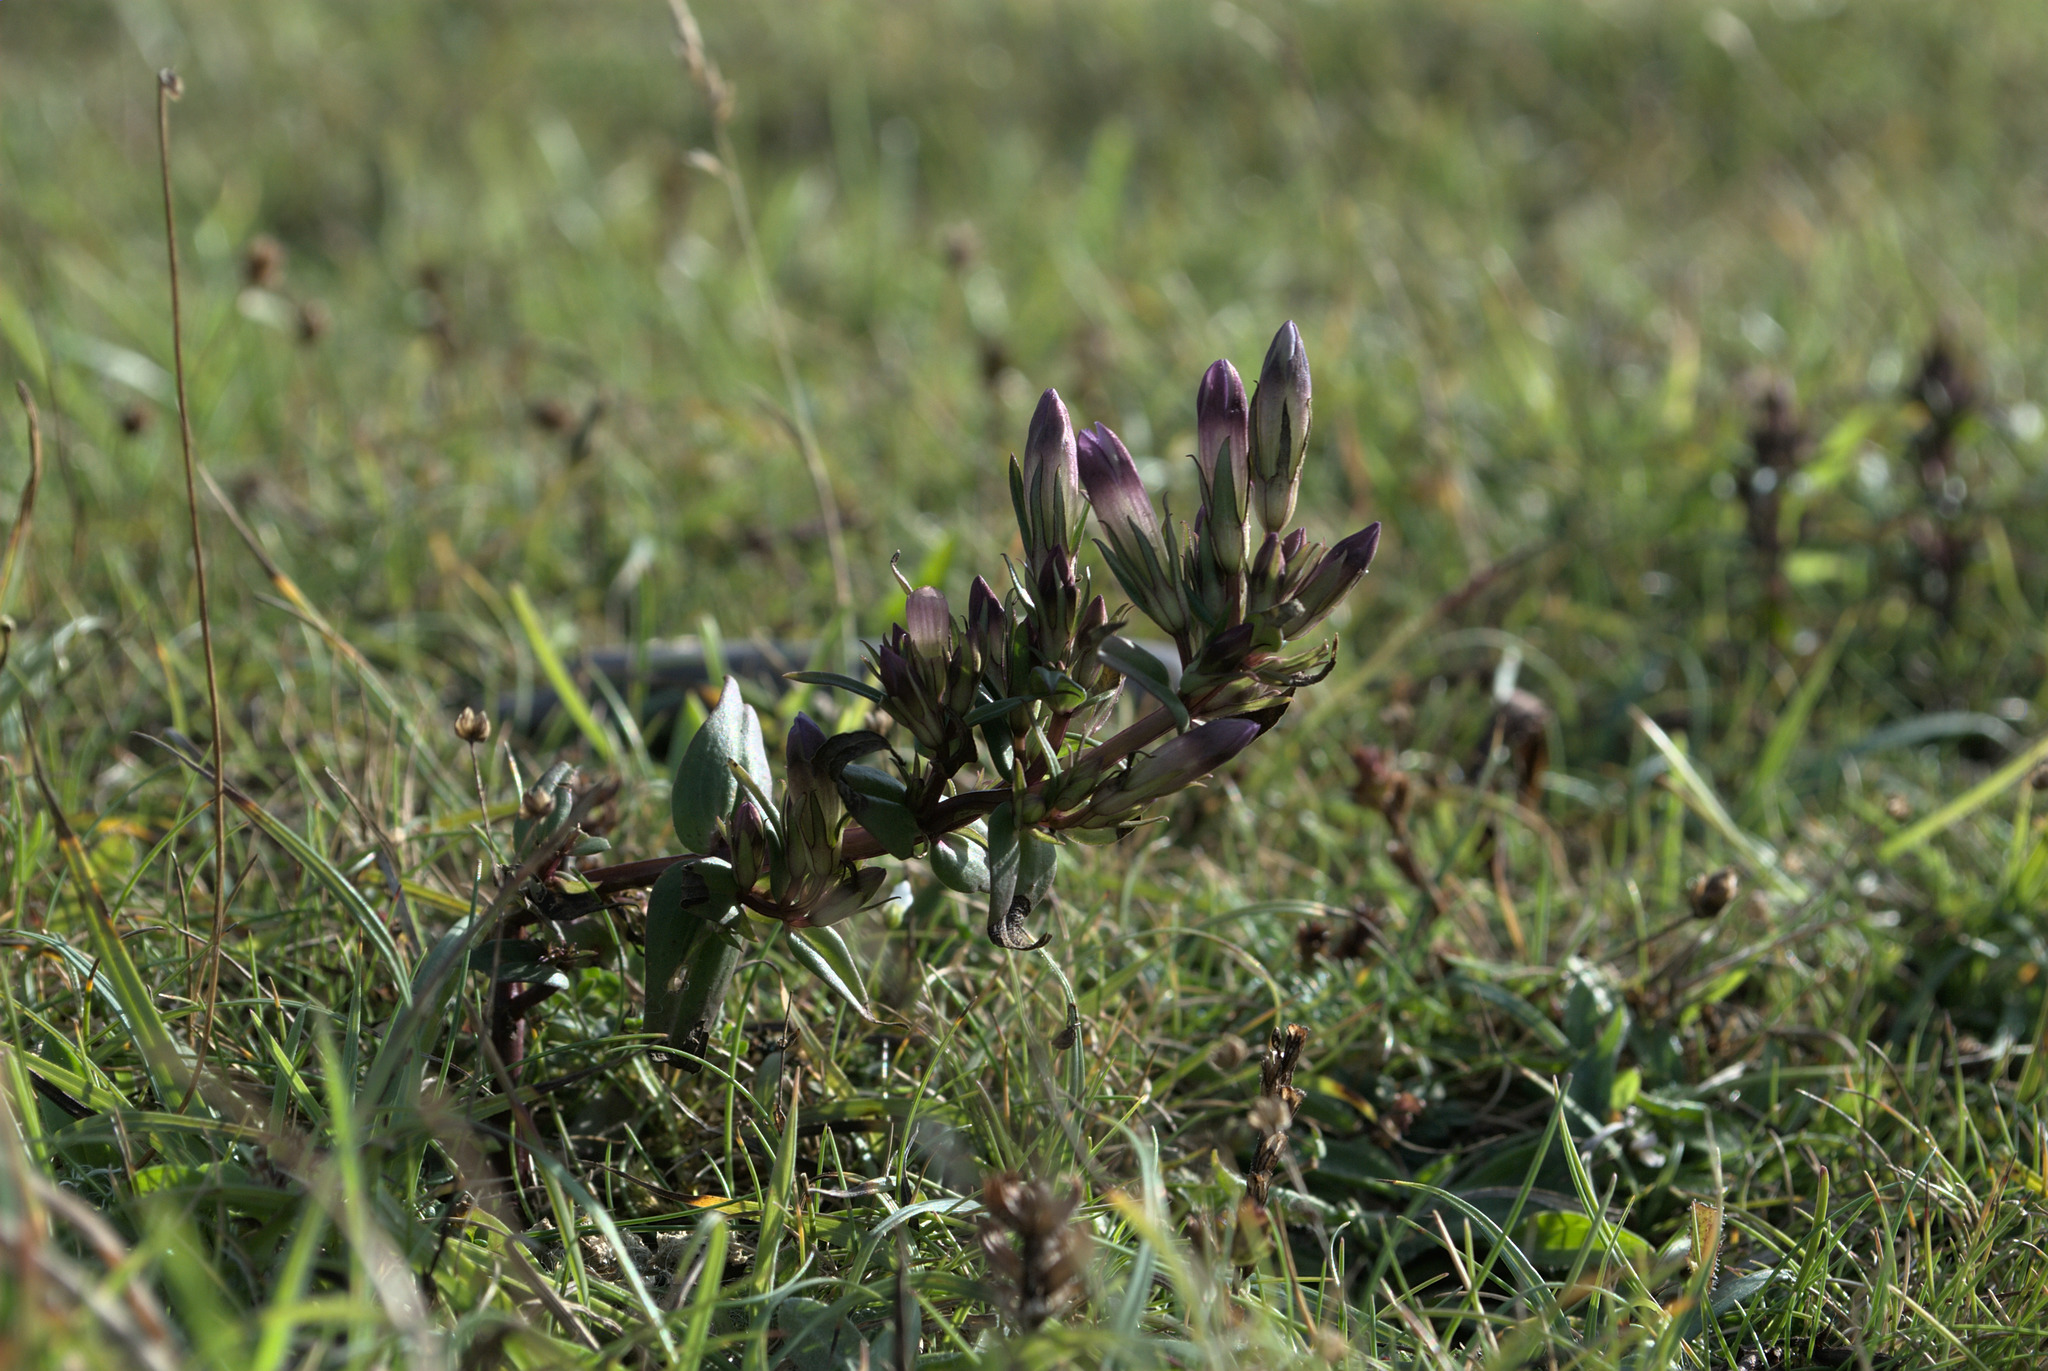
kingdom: Plantae
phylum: Tracheophyta
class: Magnoliopsida
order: Gentianales
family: Gentianaceae
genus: Gentianella
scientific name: Gentianella amarella
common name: Autumn gentian
